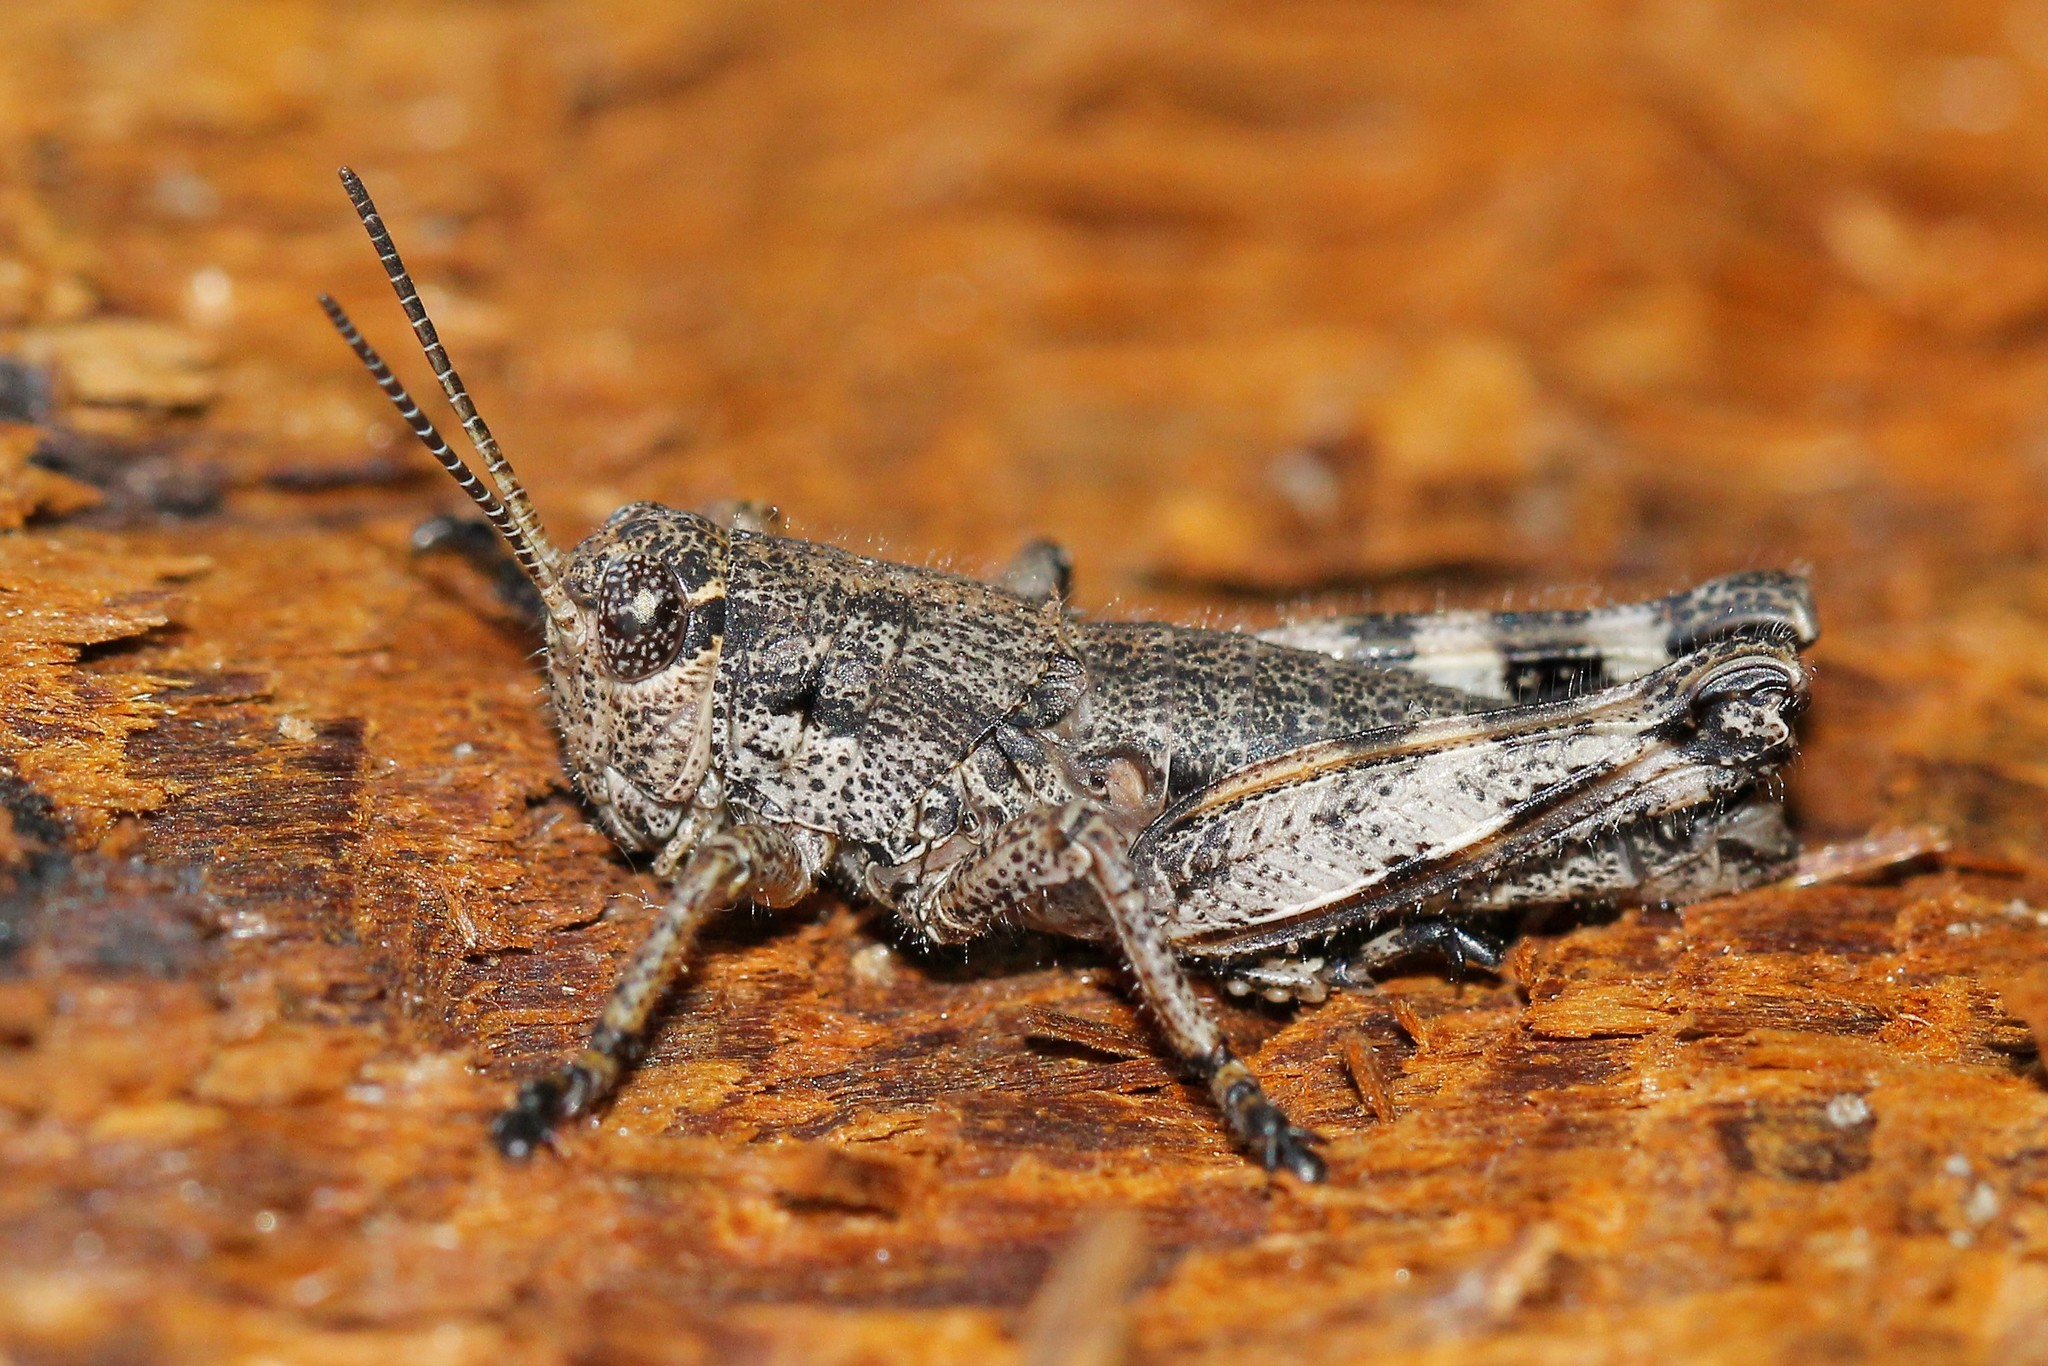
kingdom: Animalia
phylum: Arthropoda
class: Insecta
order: Orthoptera
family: Acrididae
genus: Podisma
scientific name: Podisma pedestris
